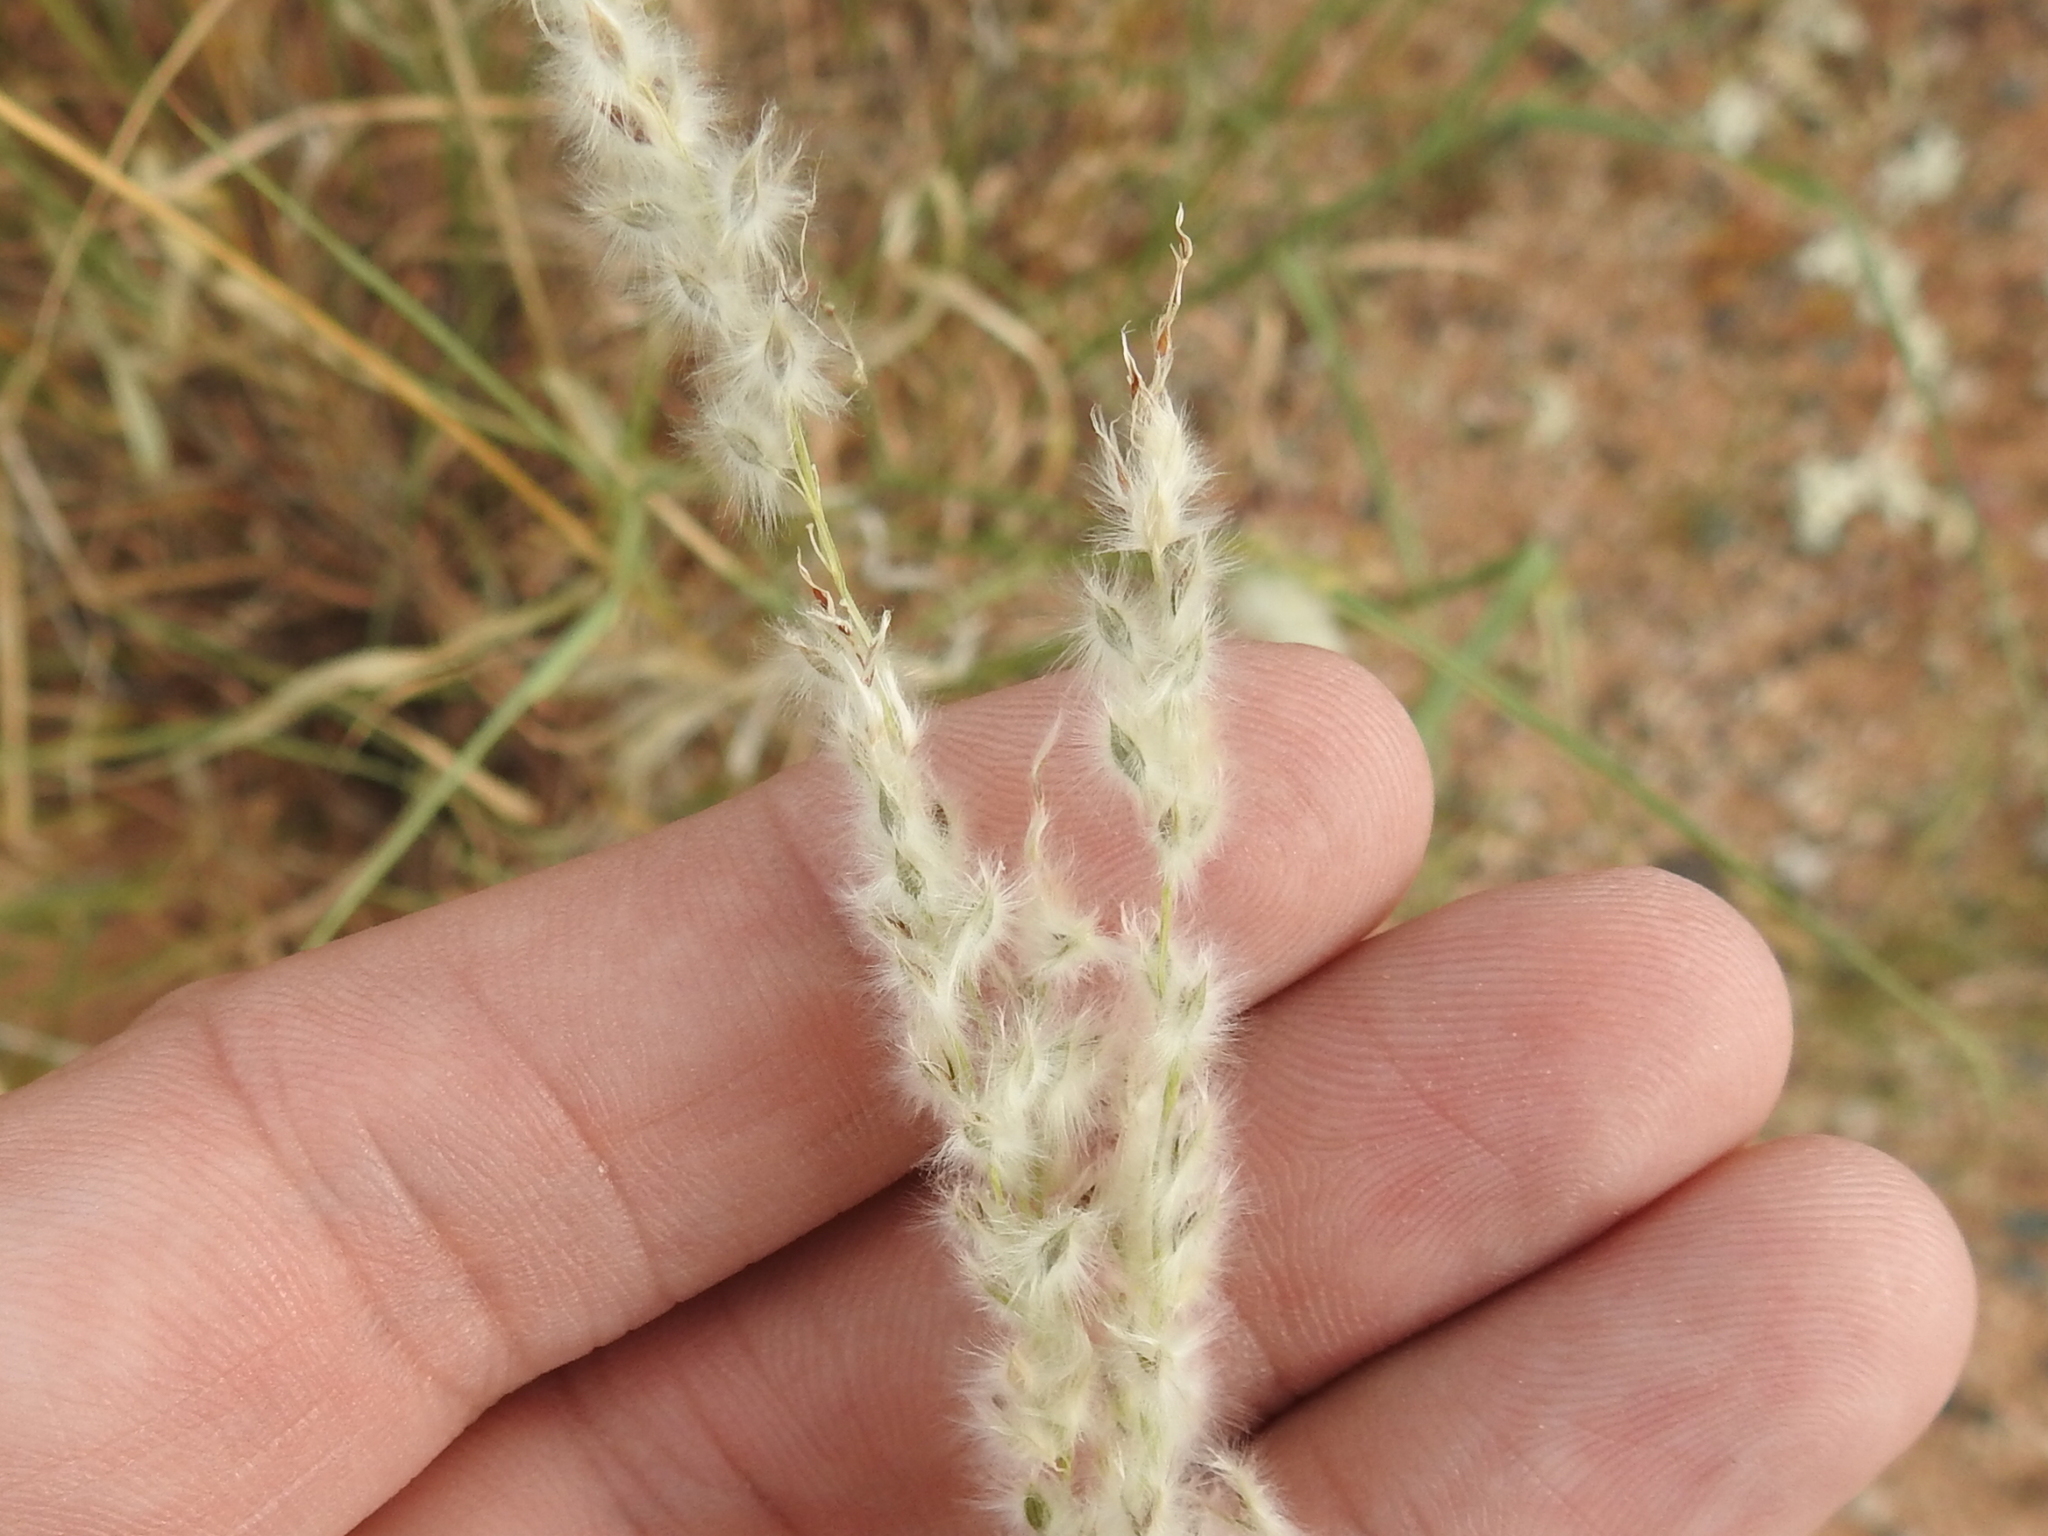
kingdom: Plantae
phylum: Tracheophyta
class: Liliopsida
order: Poales
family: Poaceae
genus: Digitaria
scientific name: Digitaria californica
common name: Arizona cottontop
